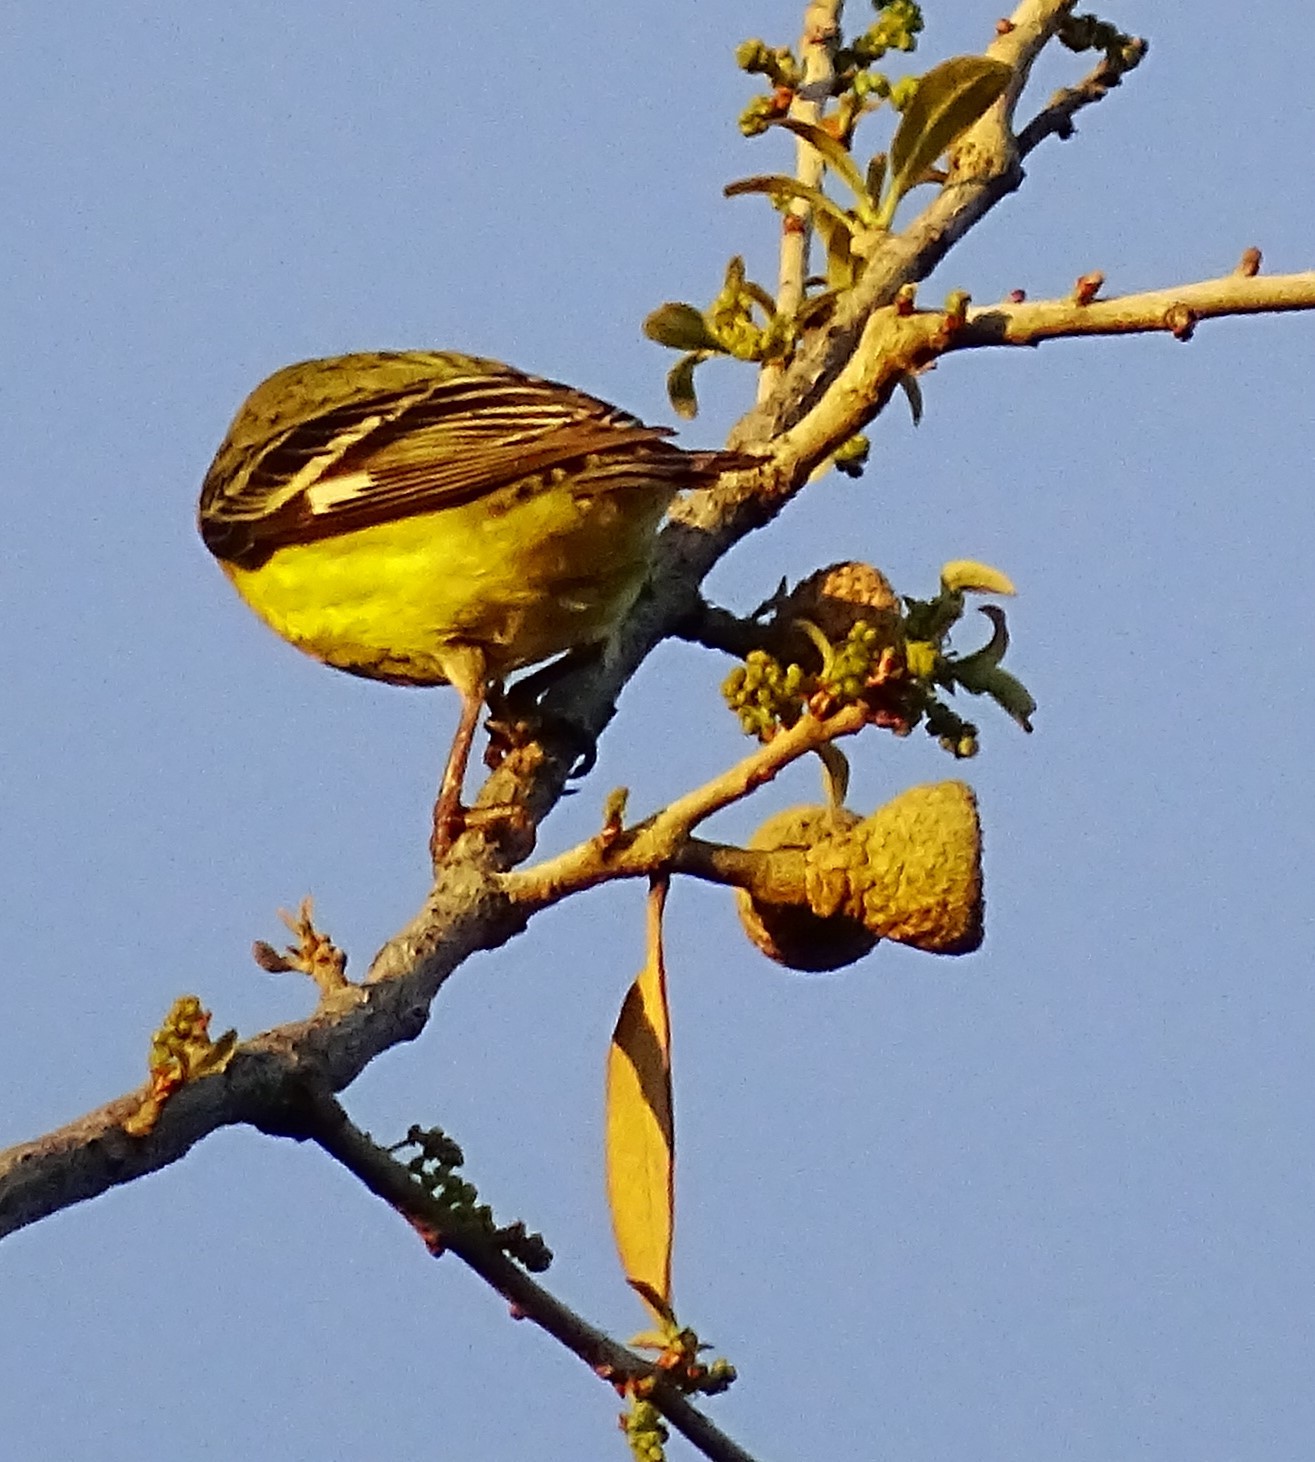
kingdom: Animalia
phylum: Chordata
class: Aves
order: Passeriformes
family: Fringillidae
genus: Spinus
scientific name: Spinus psaltria
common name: Lesser goldfinch
